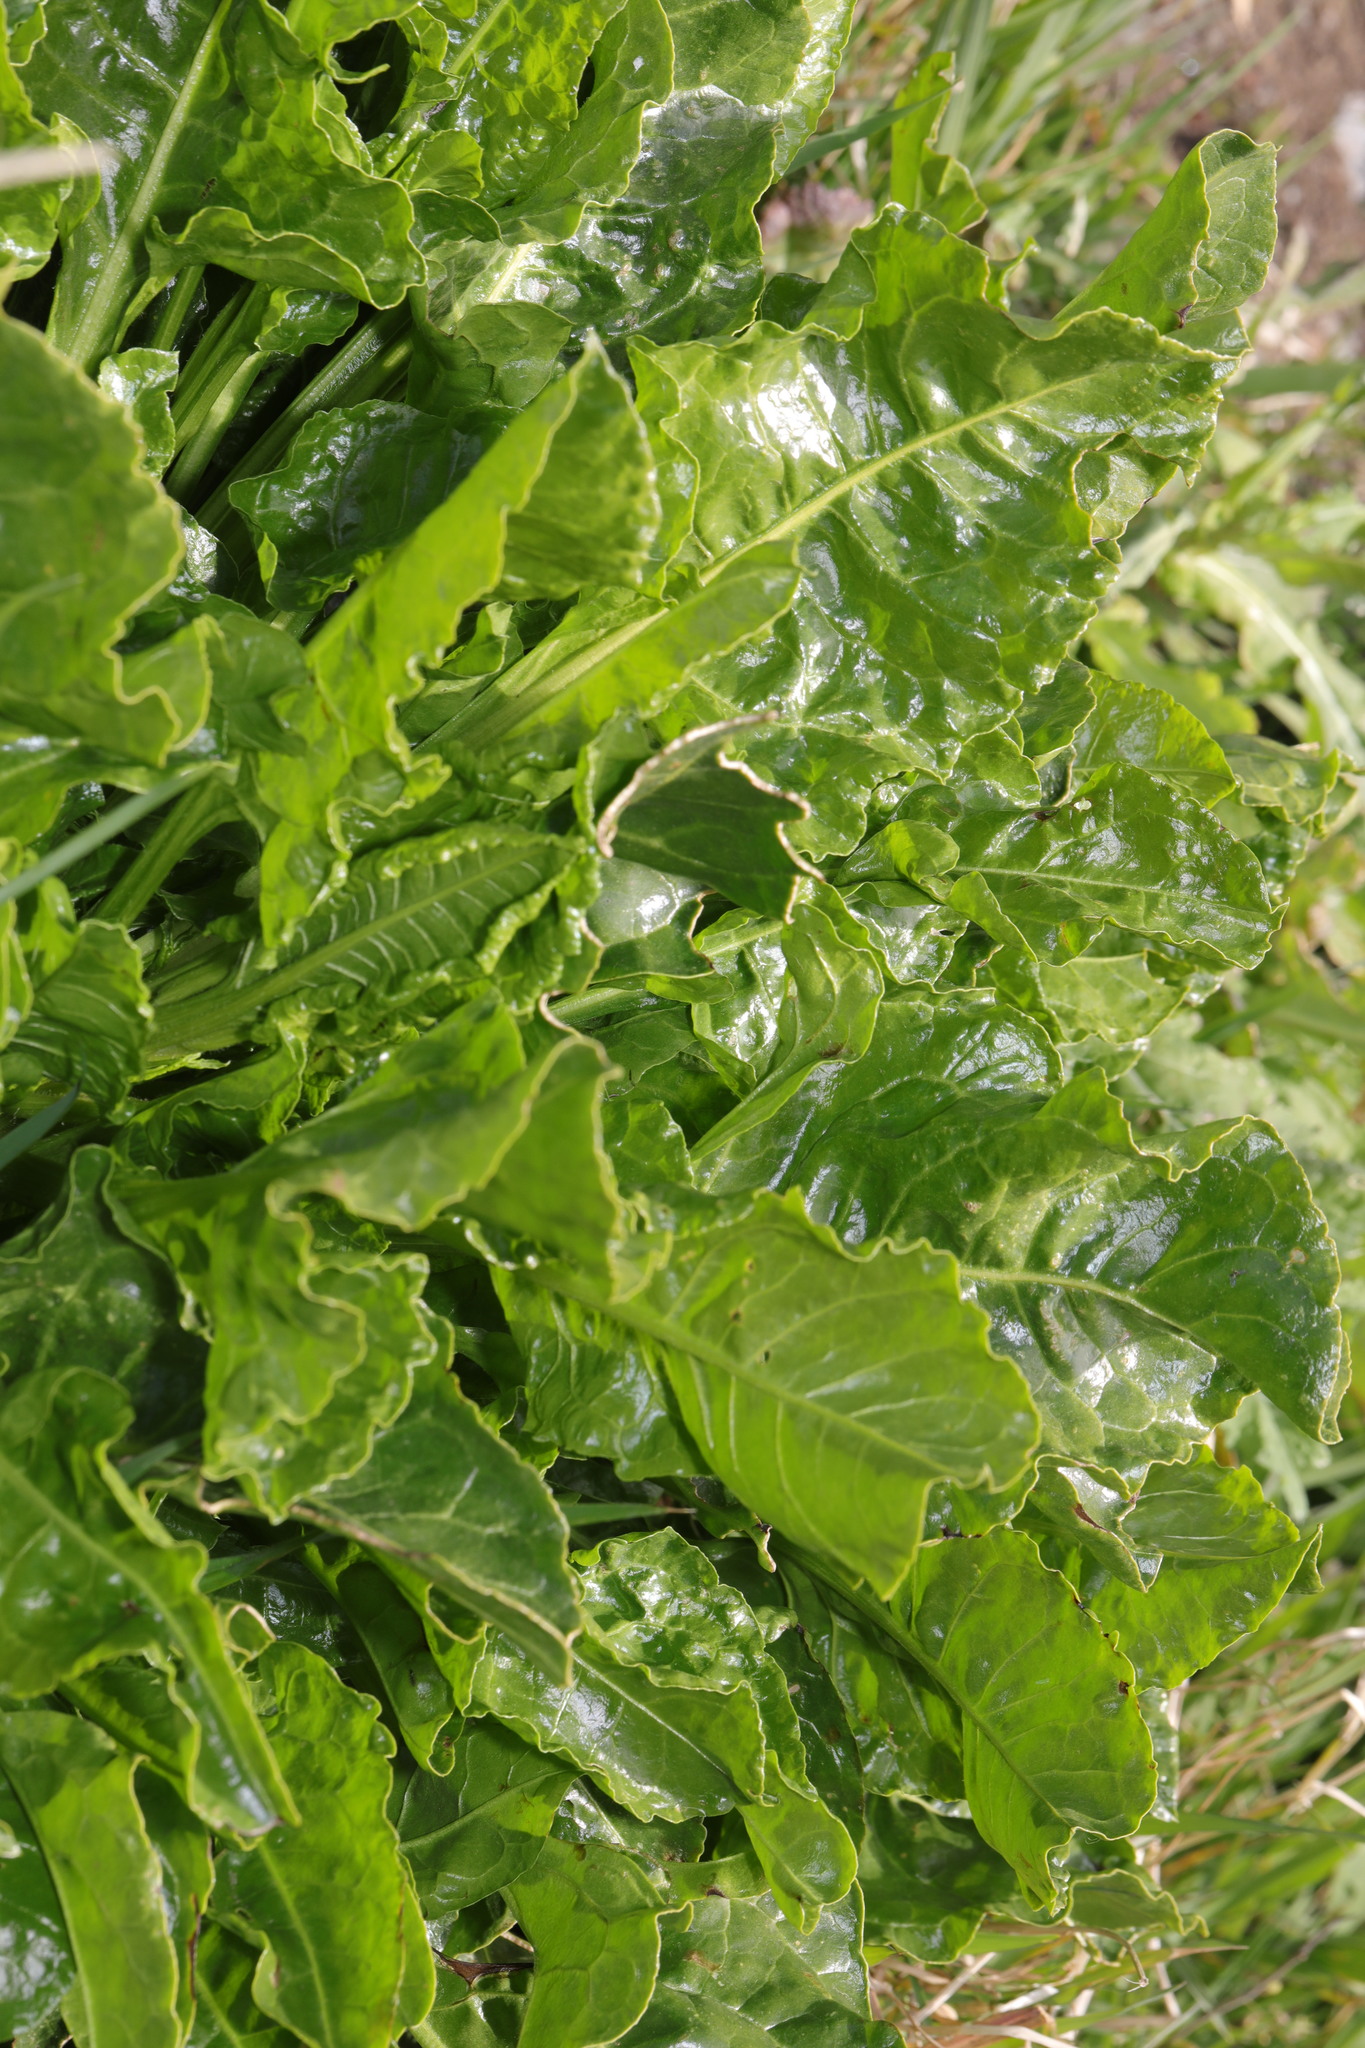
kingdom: Plantae
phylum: Tracheophyta
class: Magnoliopsida
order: Caryophyllales
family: Amaranthaceae
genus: Beta
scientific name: Beta vulgaris
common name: Beet
